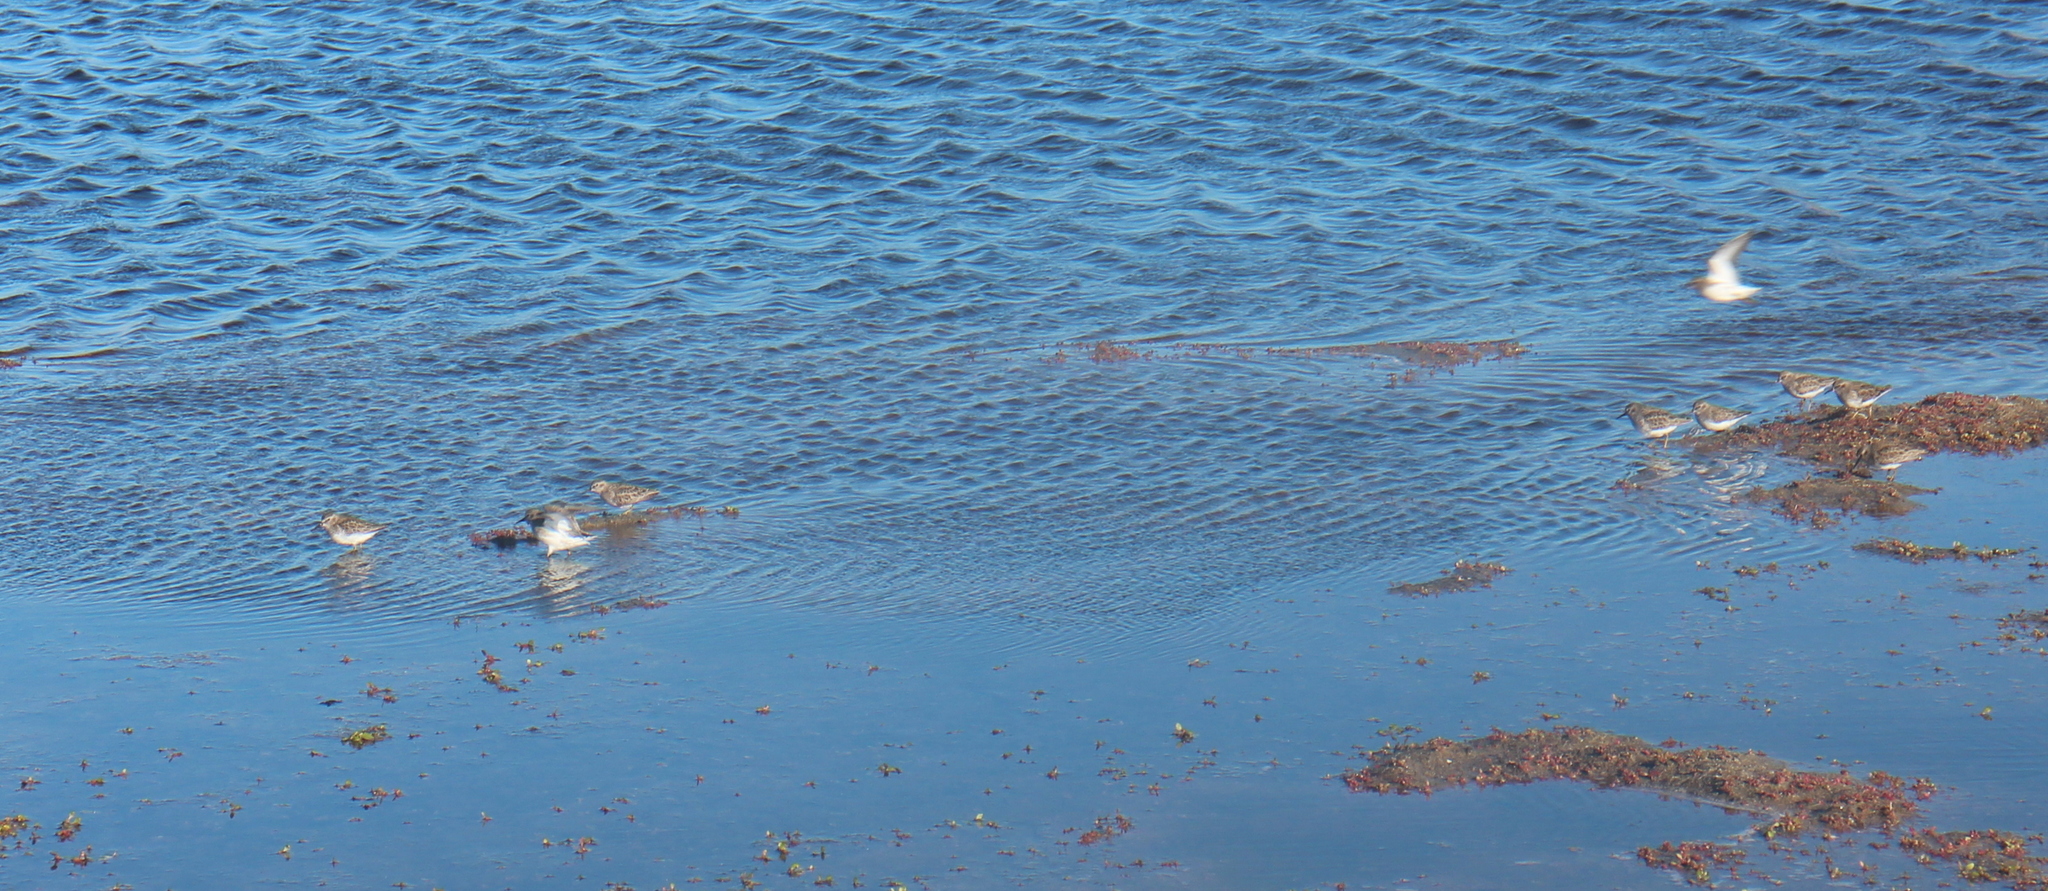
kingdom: Animalia
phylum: Chordata
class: Aves
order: Charadriiformes
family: Scolopacidae
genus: Calidris
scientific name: Calidris minutilla
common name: Least sandpiper
